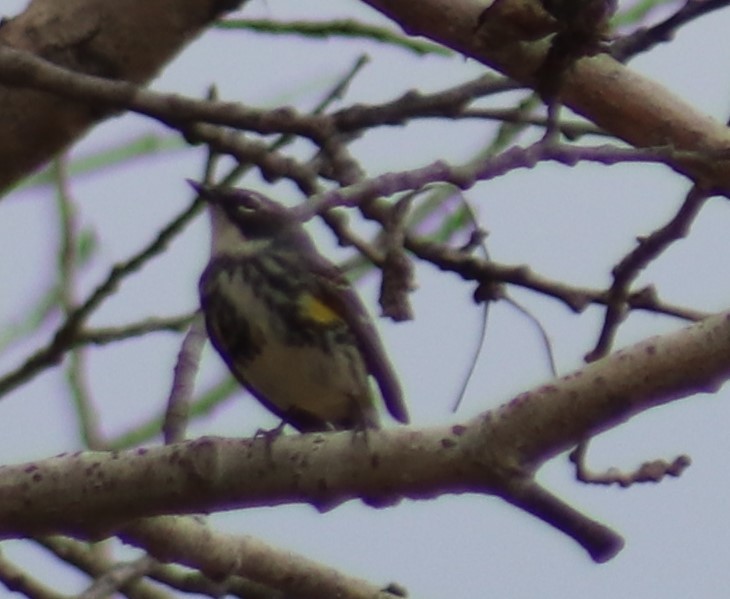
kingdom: Animalia
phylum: Chordata
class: Aves
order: Passeriformes
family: Parulidae
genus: Setophaga
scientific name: Setophaga coronata
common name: Myrtle warbler
